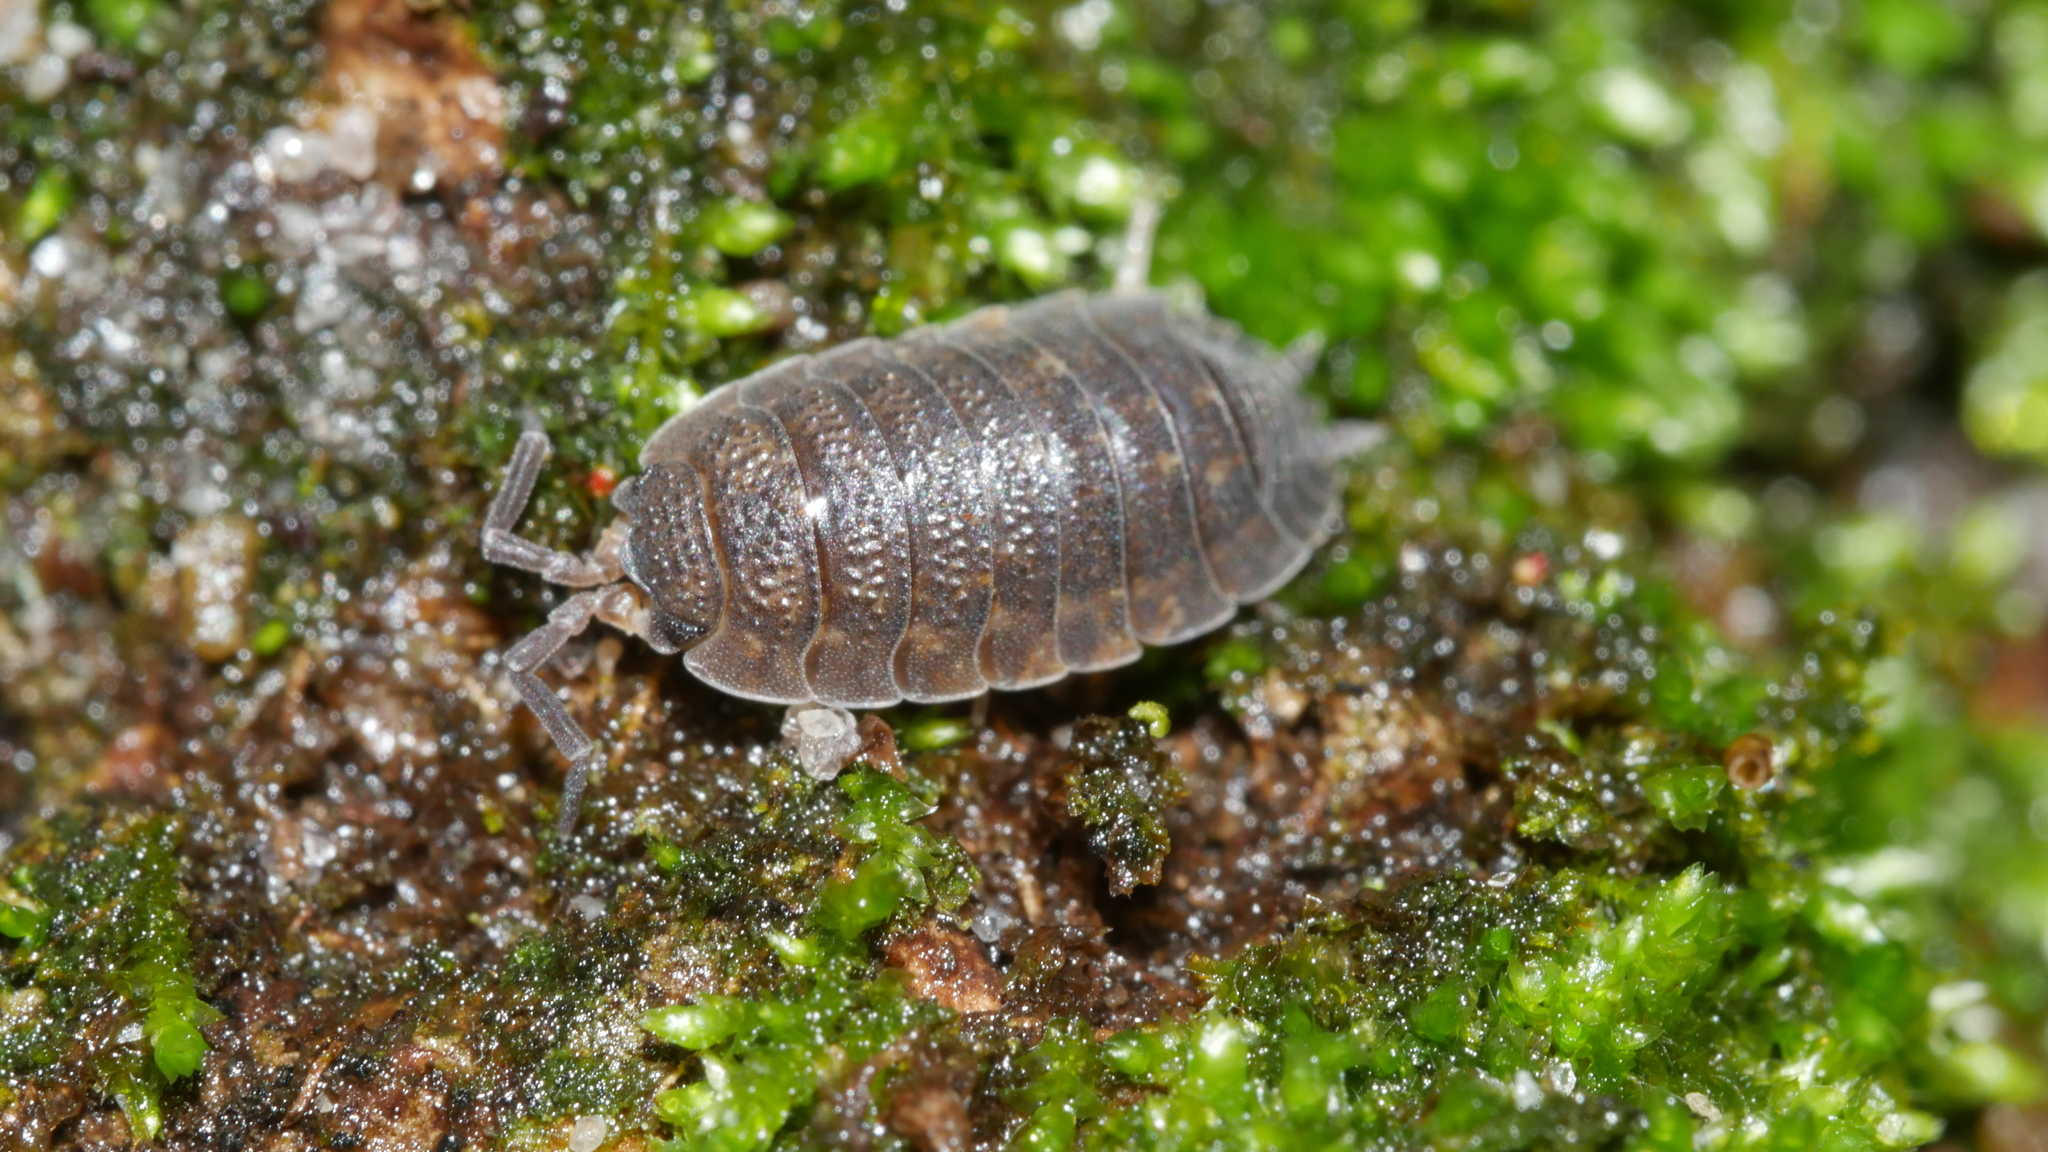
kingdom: Animalia
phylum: Arthropoda
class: Malacostraca
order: Isopoda
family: Porcellionidae
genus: Porcellio
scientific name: Porcellio scaber
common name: Common rough woodlouse
